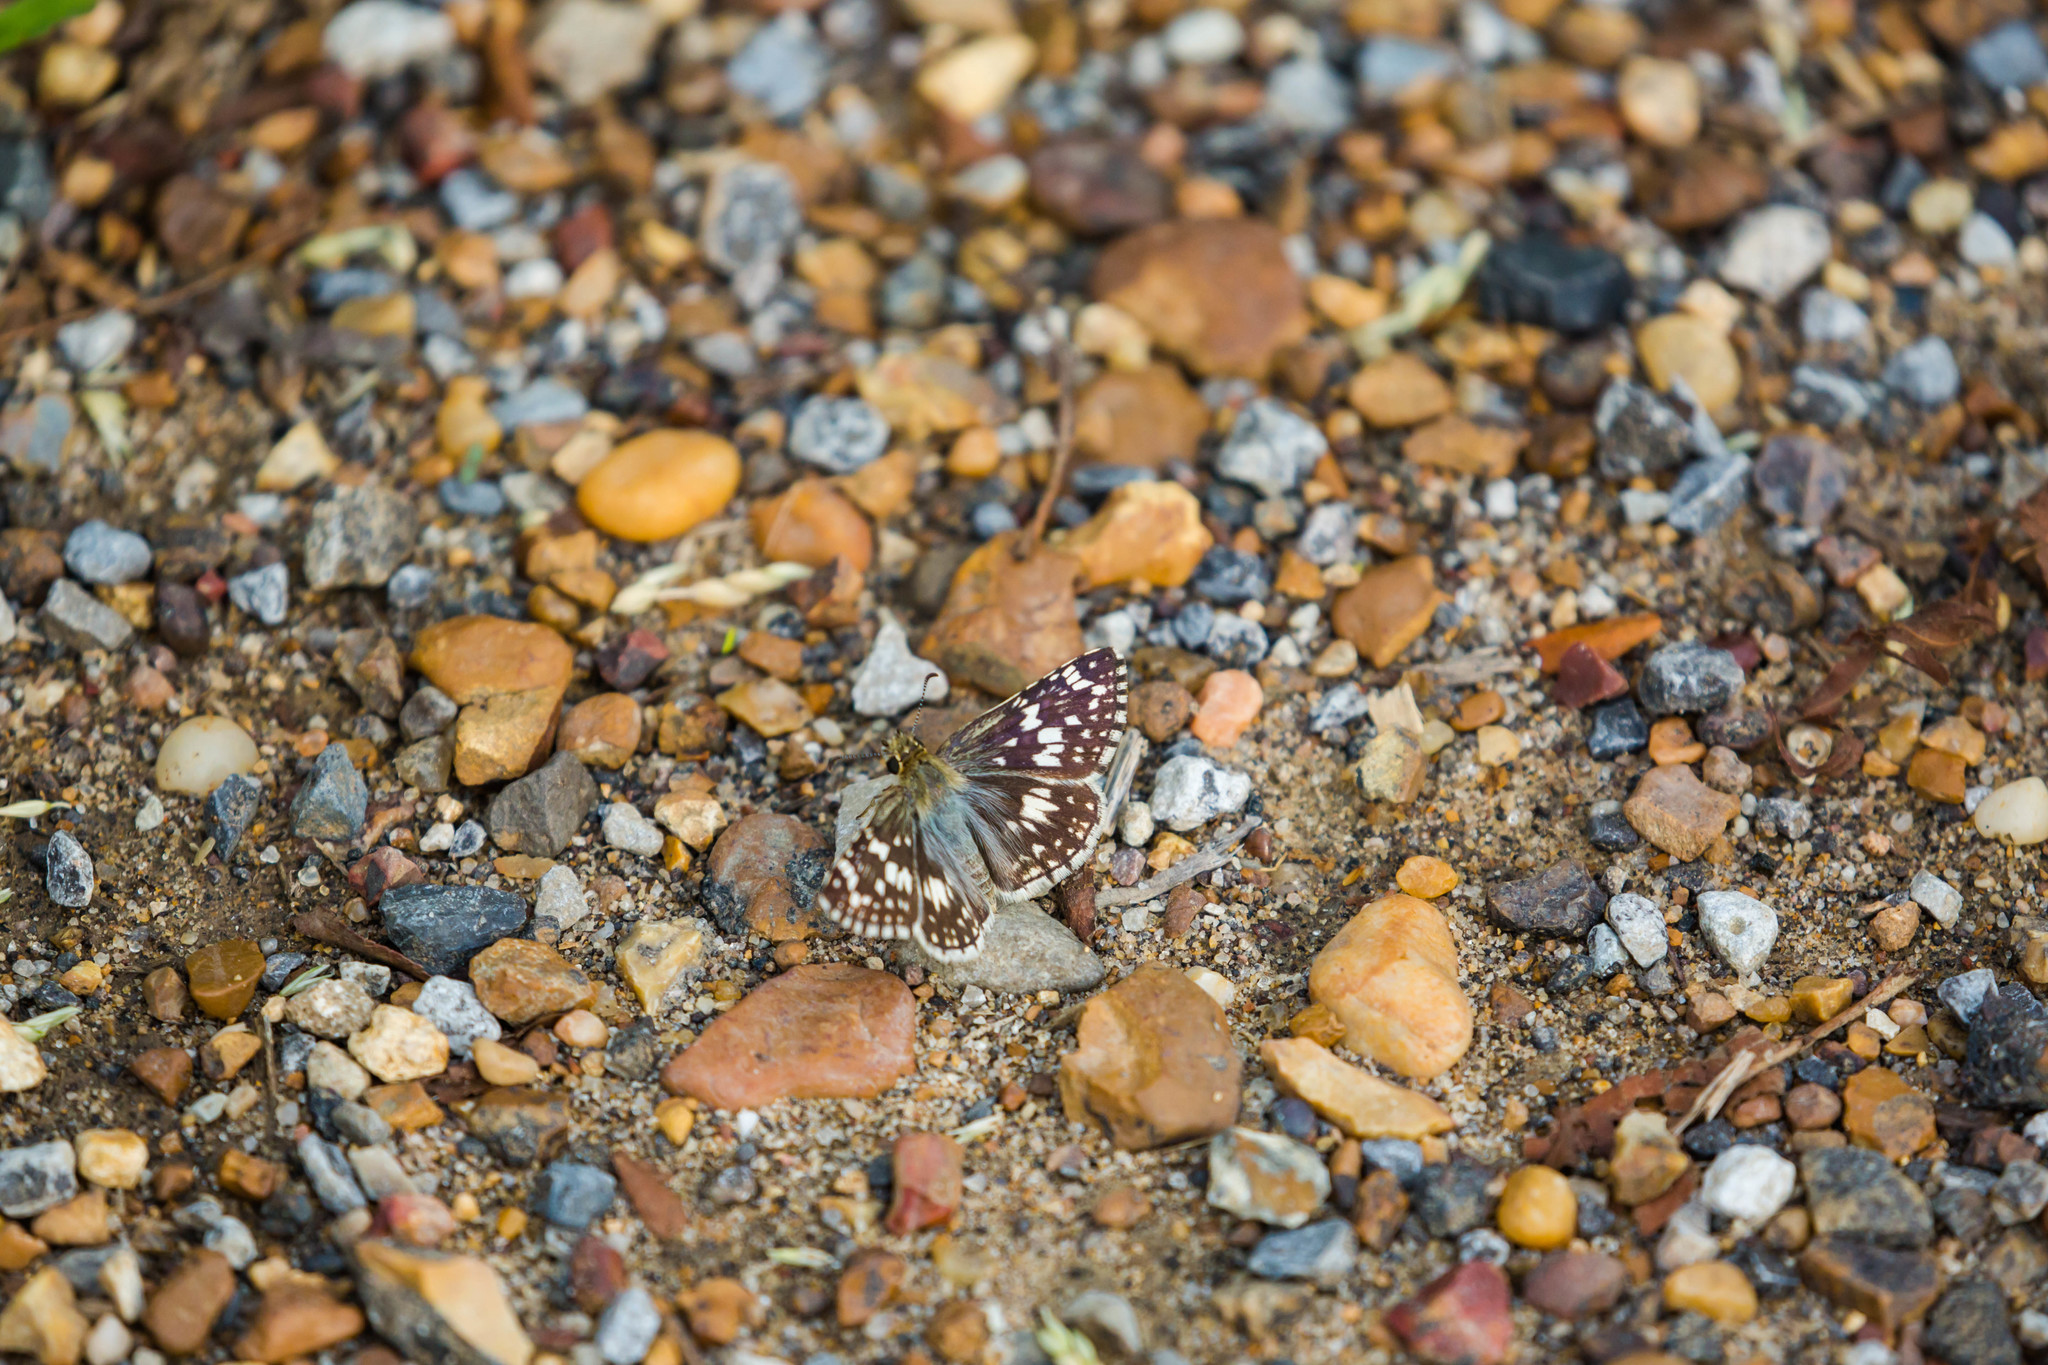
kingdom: Animalia
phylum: Arthropoda
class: Insecta
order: Lepidoptera
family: Hesperiidae
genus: Burnsius
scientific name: Burnsius communis
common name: Common checkered-skipper
